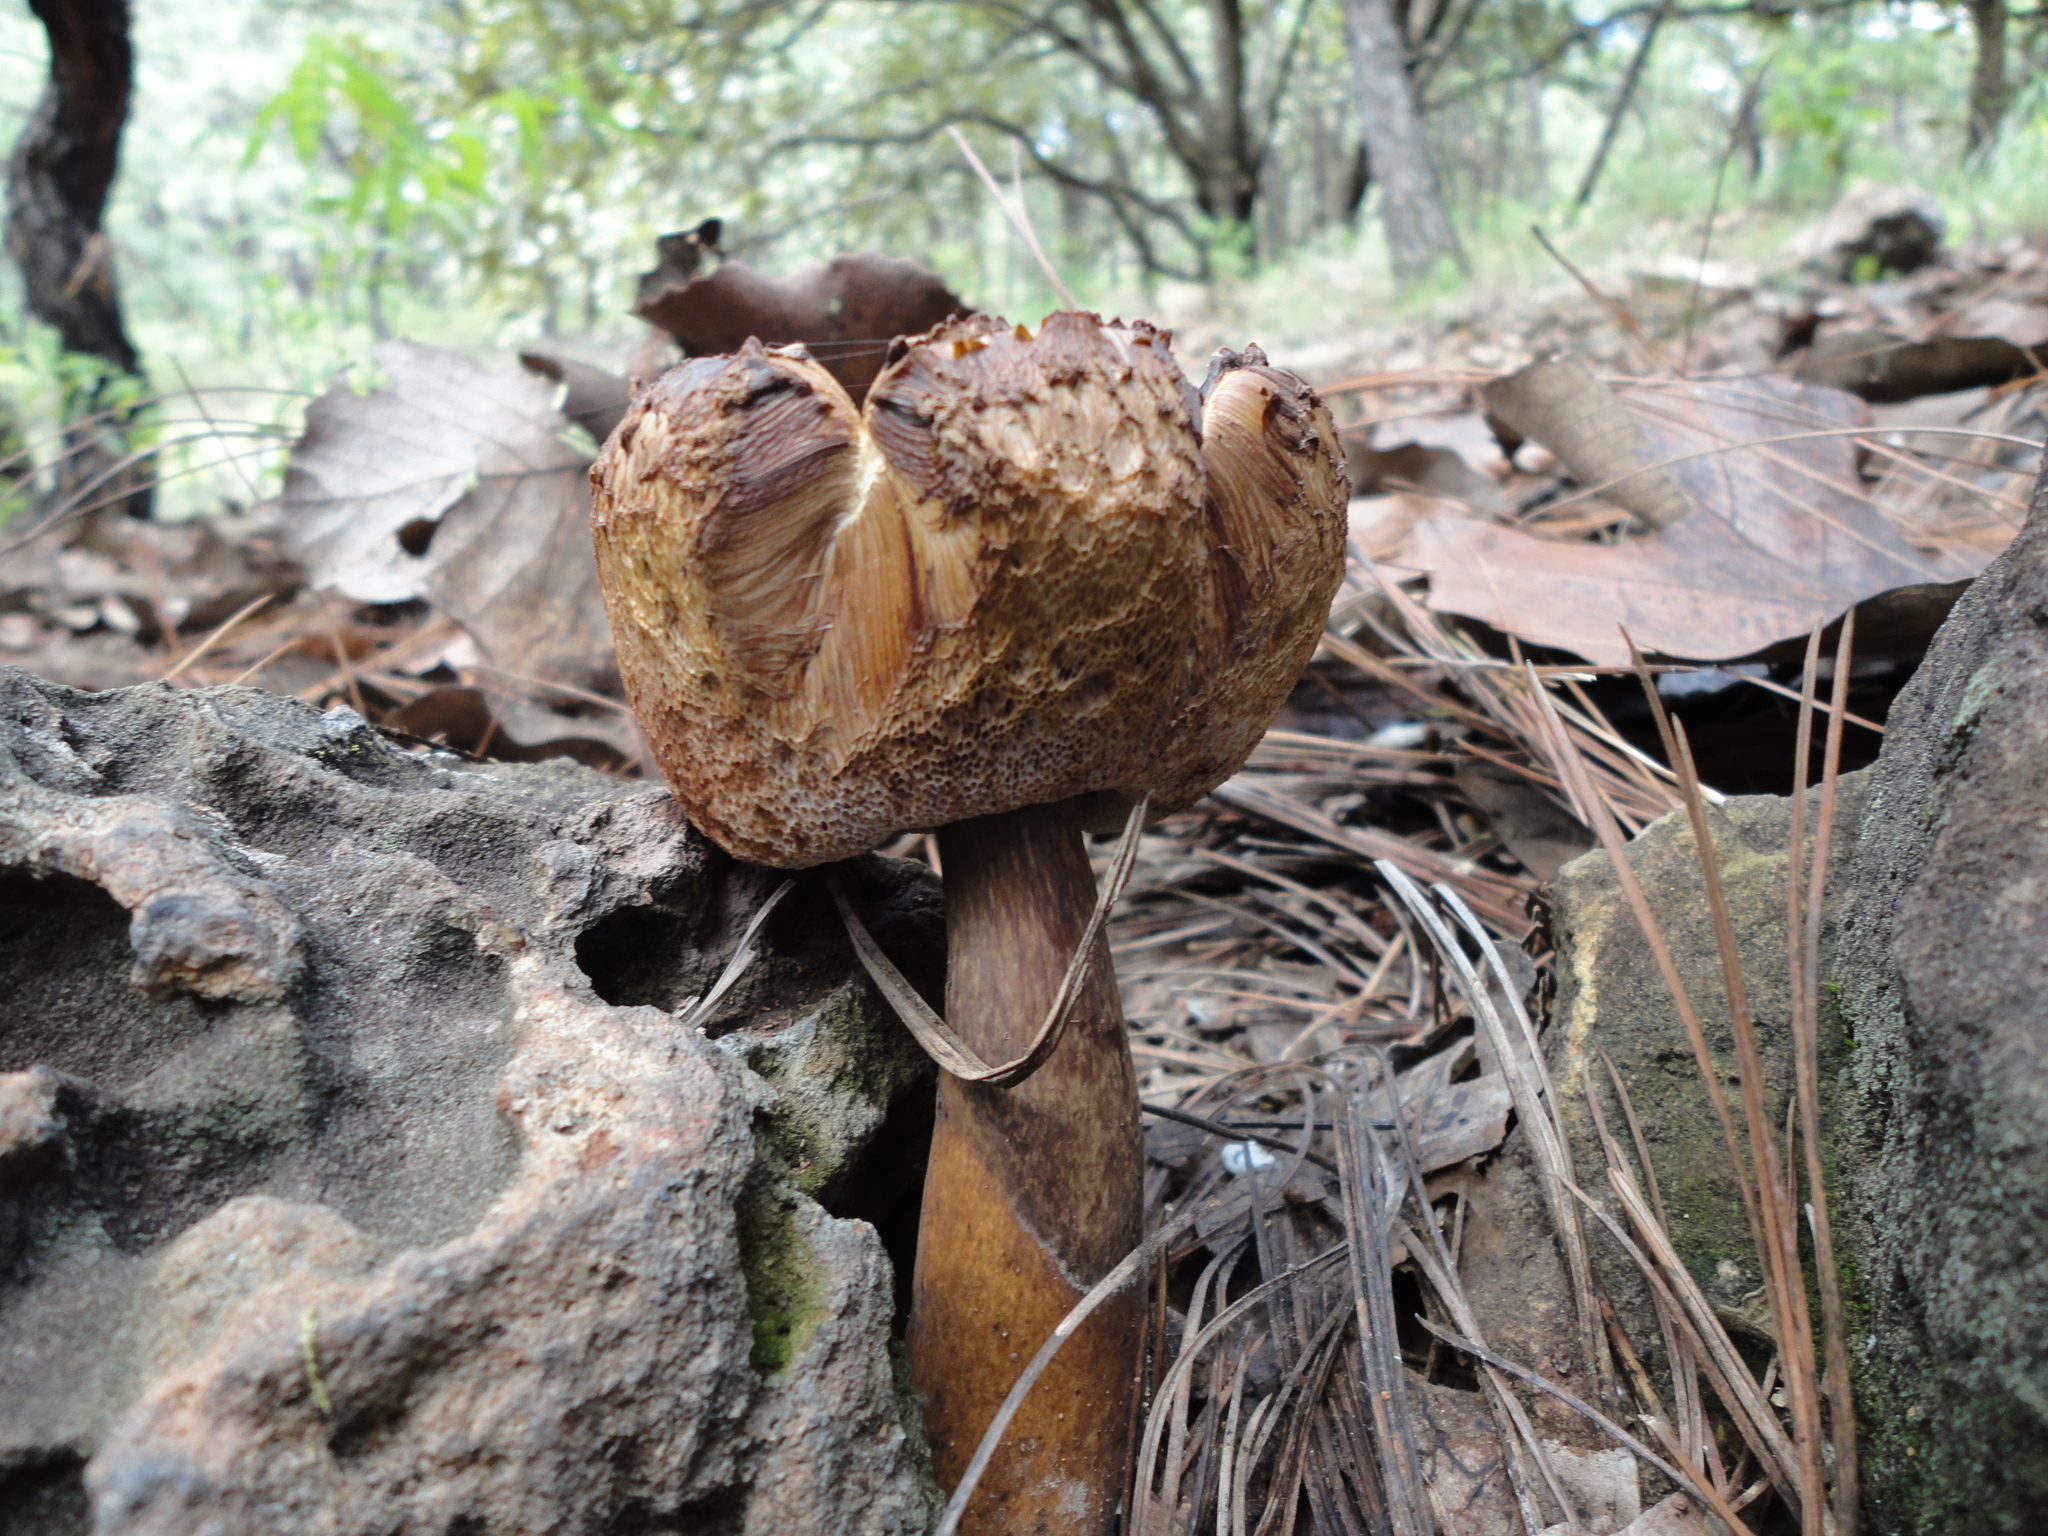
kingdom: Fungi
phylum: Basidiomycota
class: Agaricomycetes
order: Boletales
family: Boletaceae
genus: Austroboletus
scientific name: Austroboletus gracilis
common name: Graceful bolete
